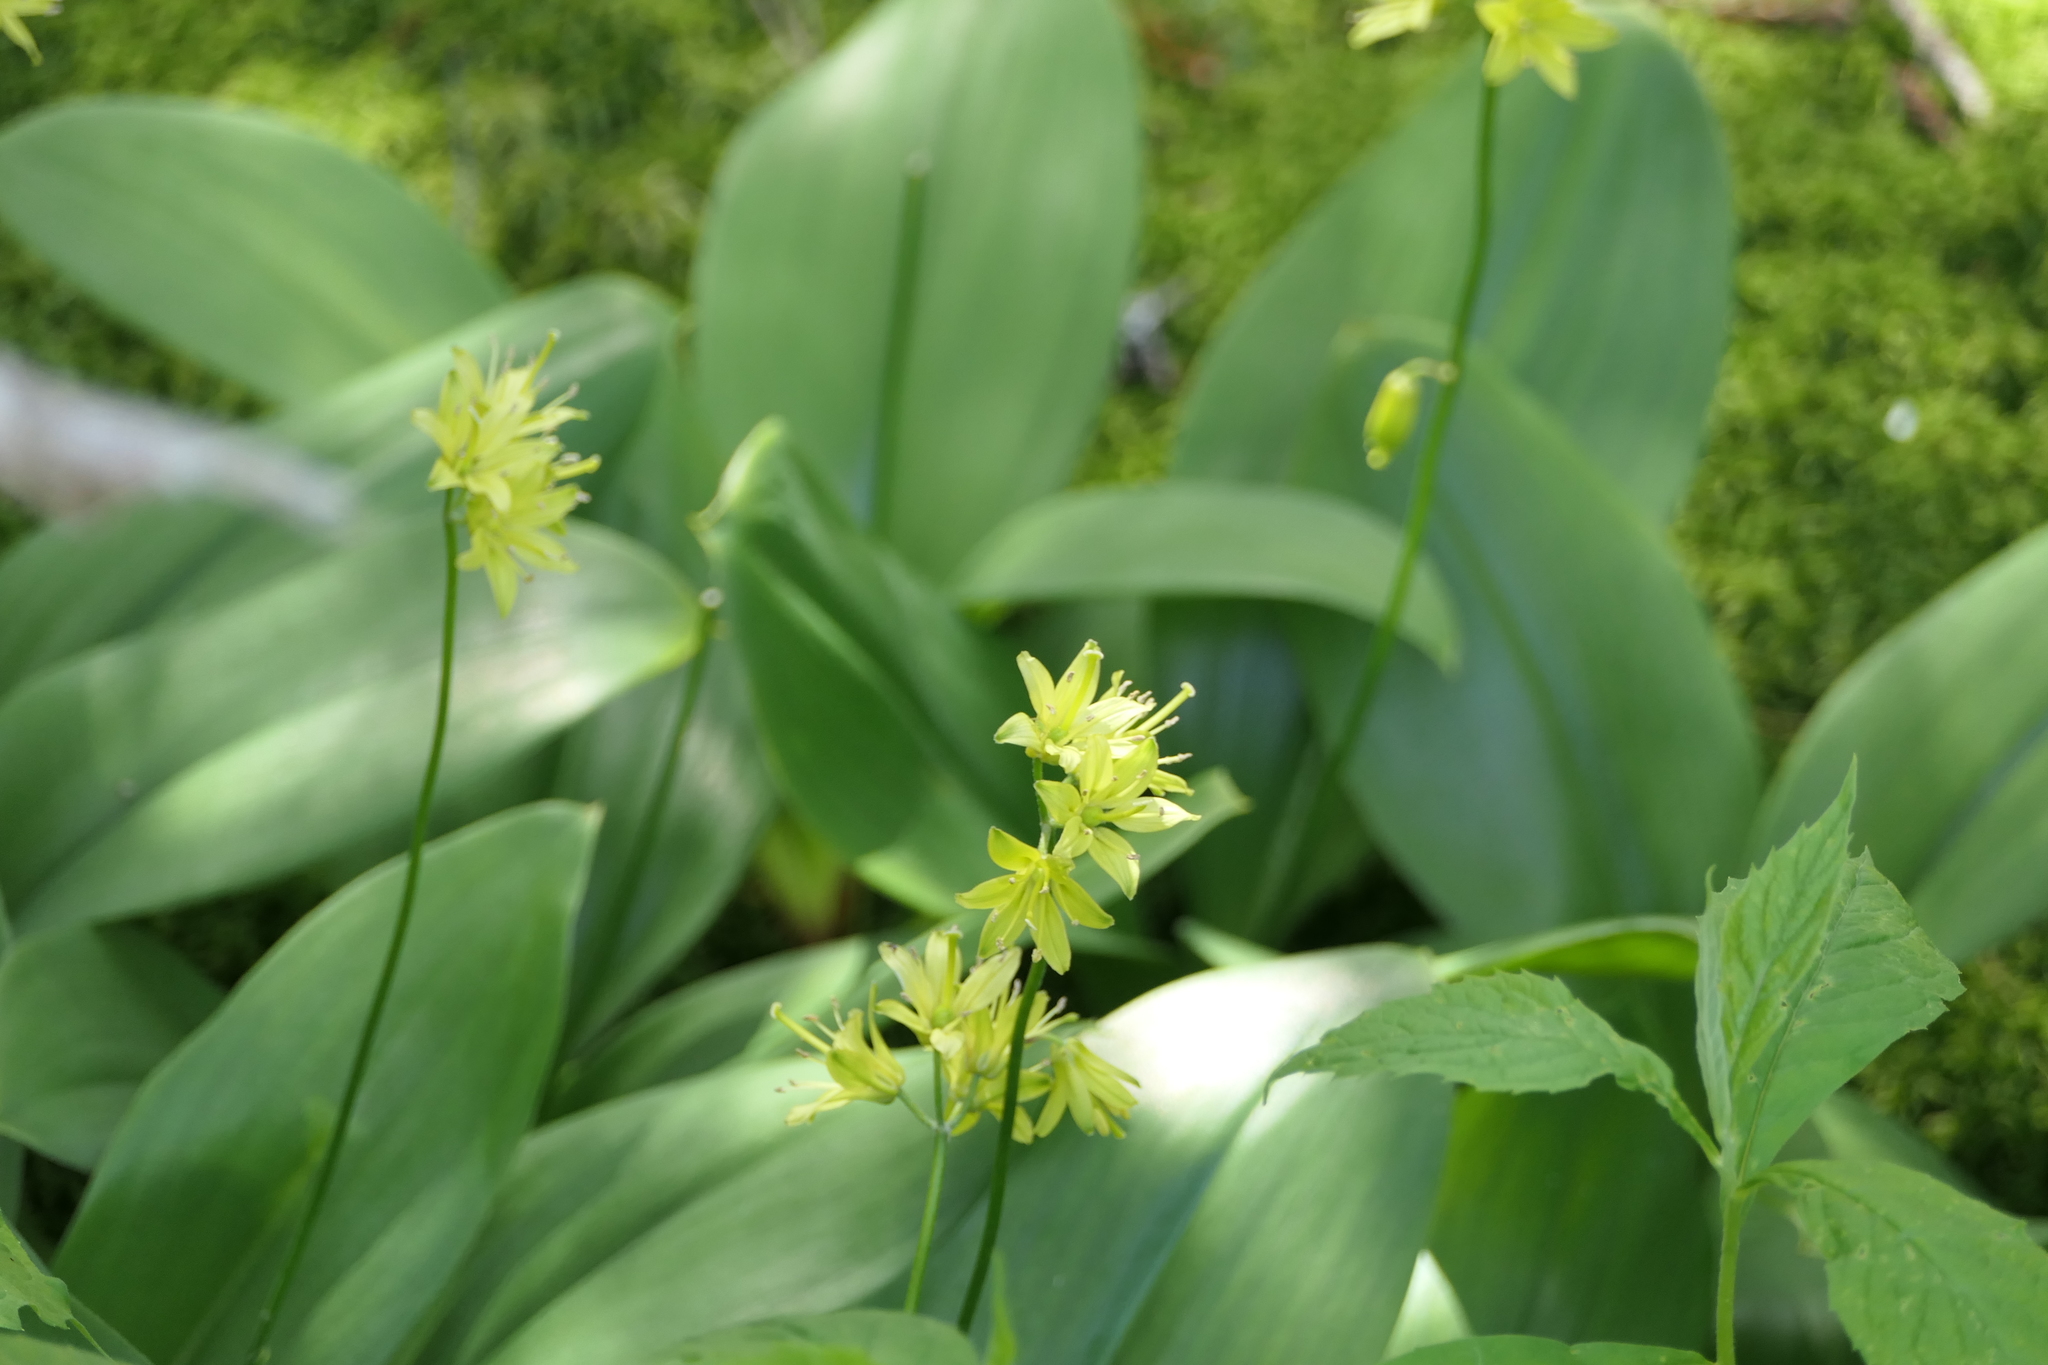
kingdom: Plantae
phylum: Tracheophyta
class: Liliopsida
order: Liliales
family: Liliaceae
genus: Clintonia
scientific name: Clintonia borealis
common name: Yellow clintonia
